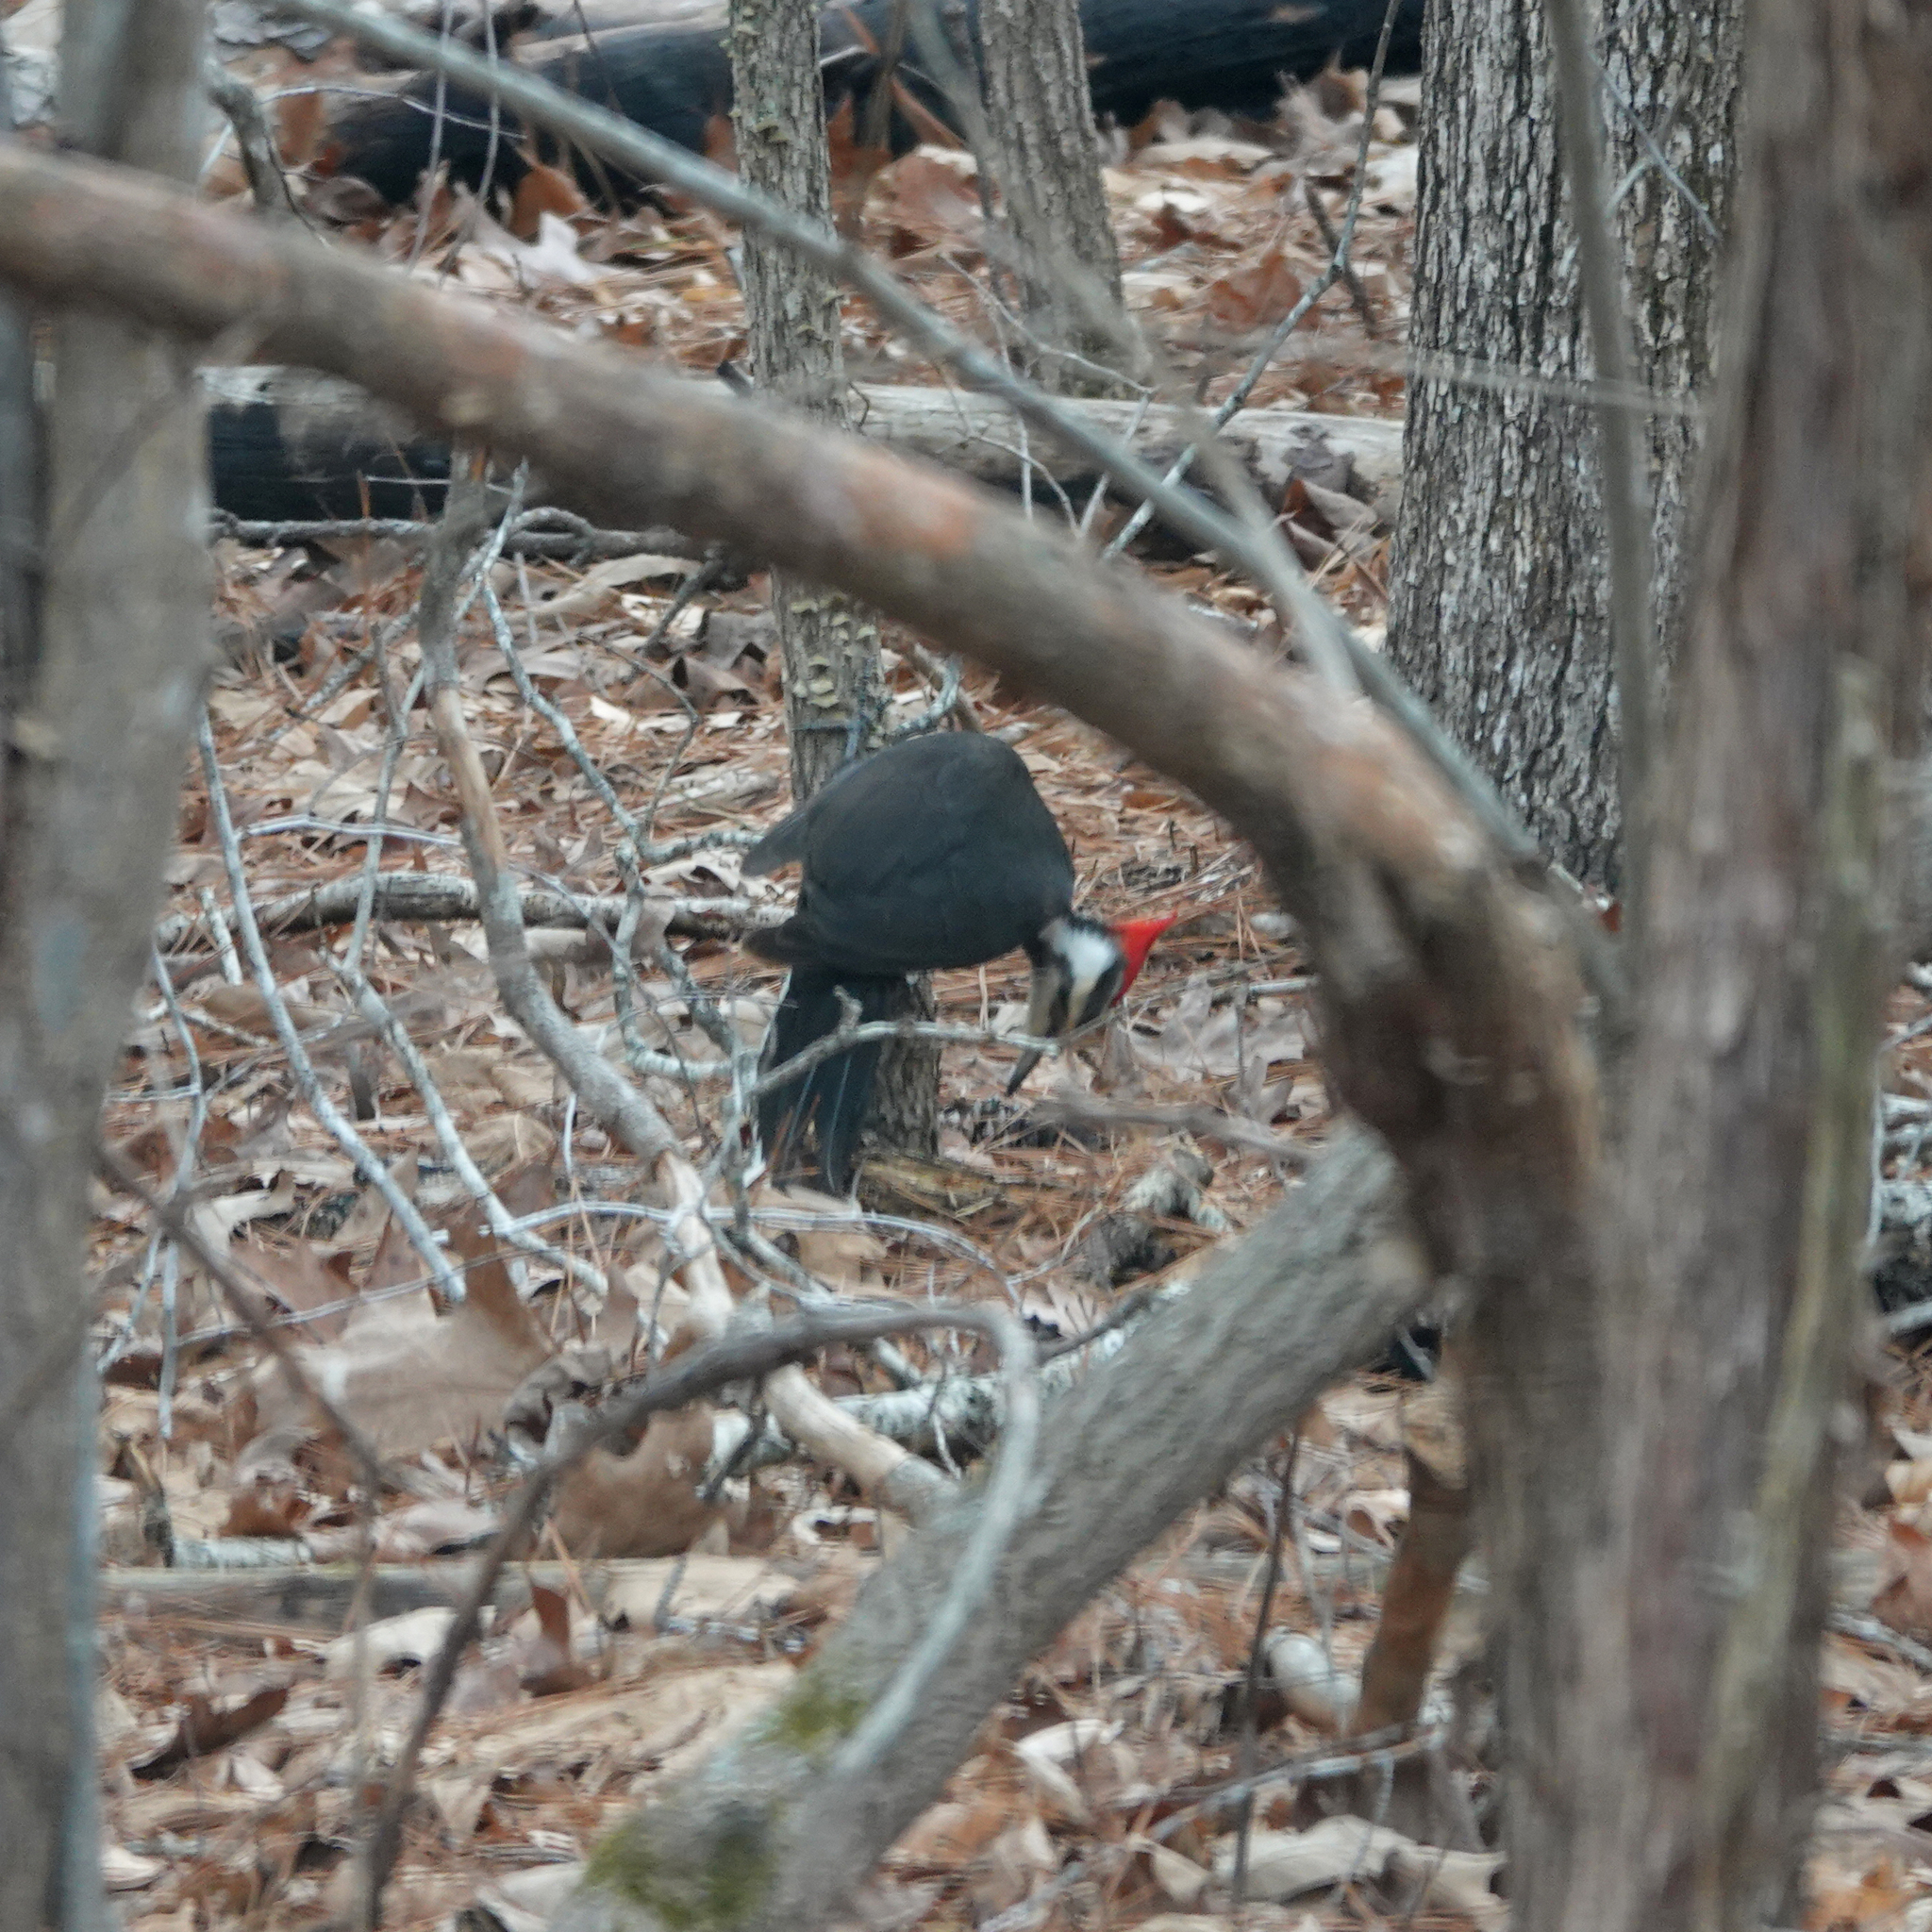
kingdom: Animalia
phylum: Chordata
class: Aves
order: Piciformes
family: Picidae
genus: Dryocopus
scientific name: Dryocopus pileatus
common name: Pileated woodpecker
